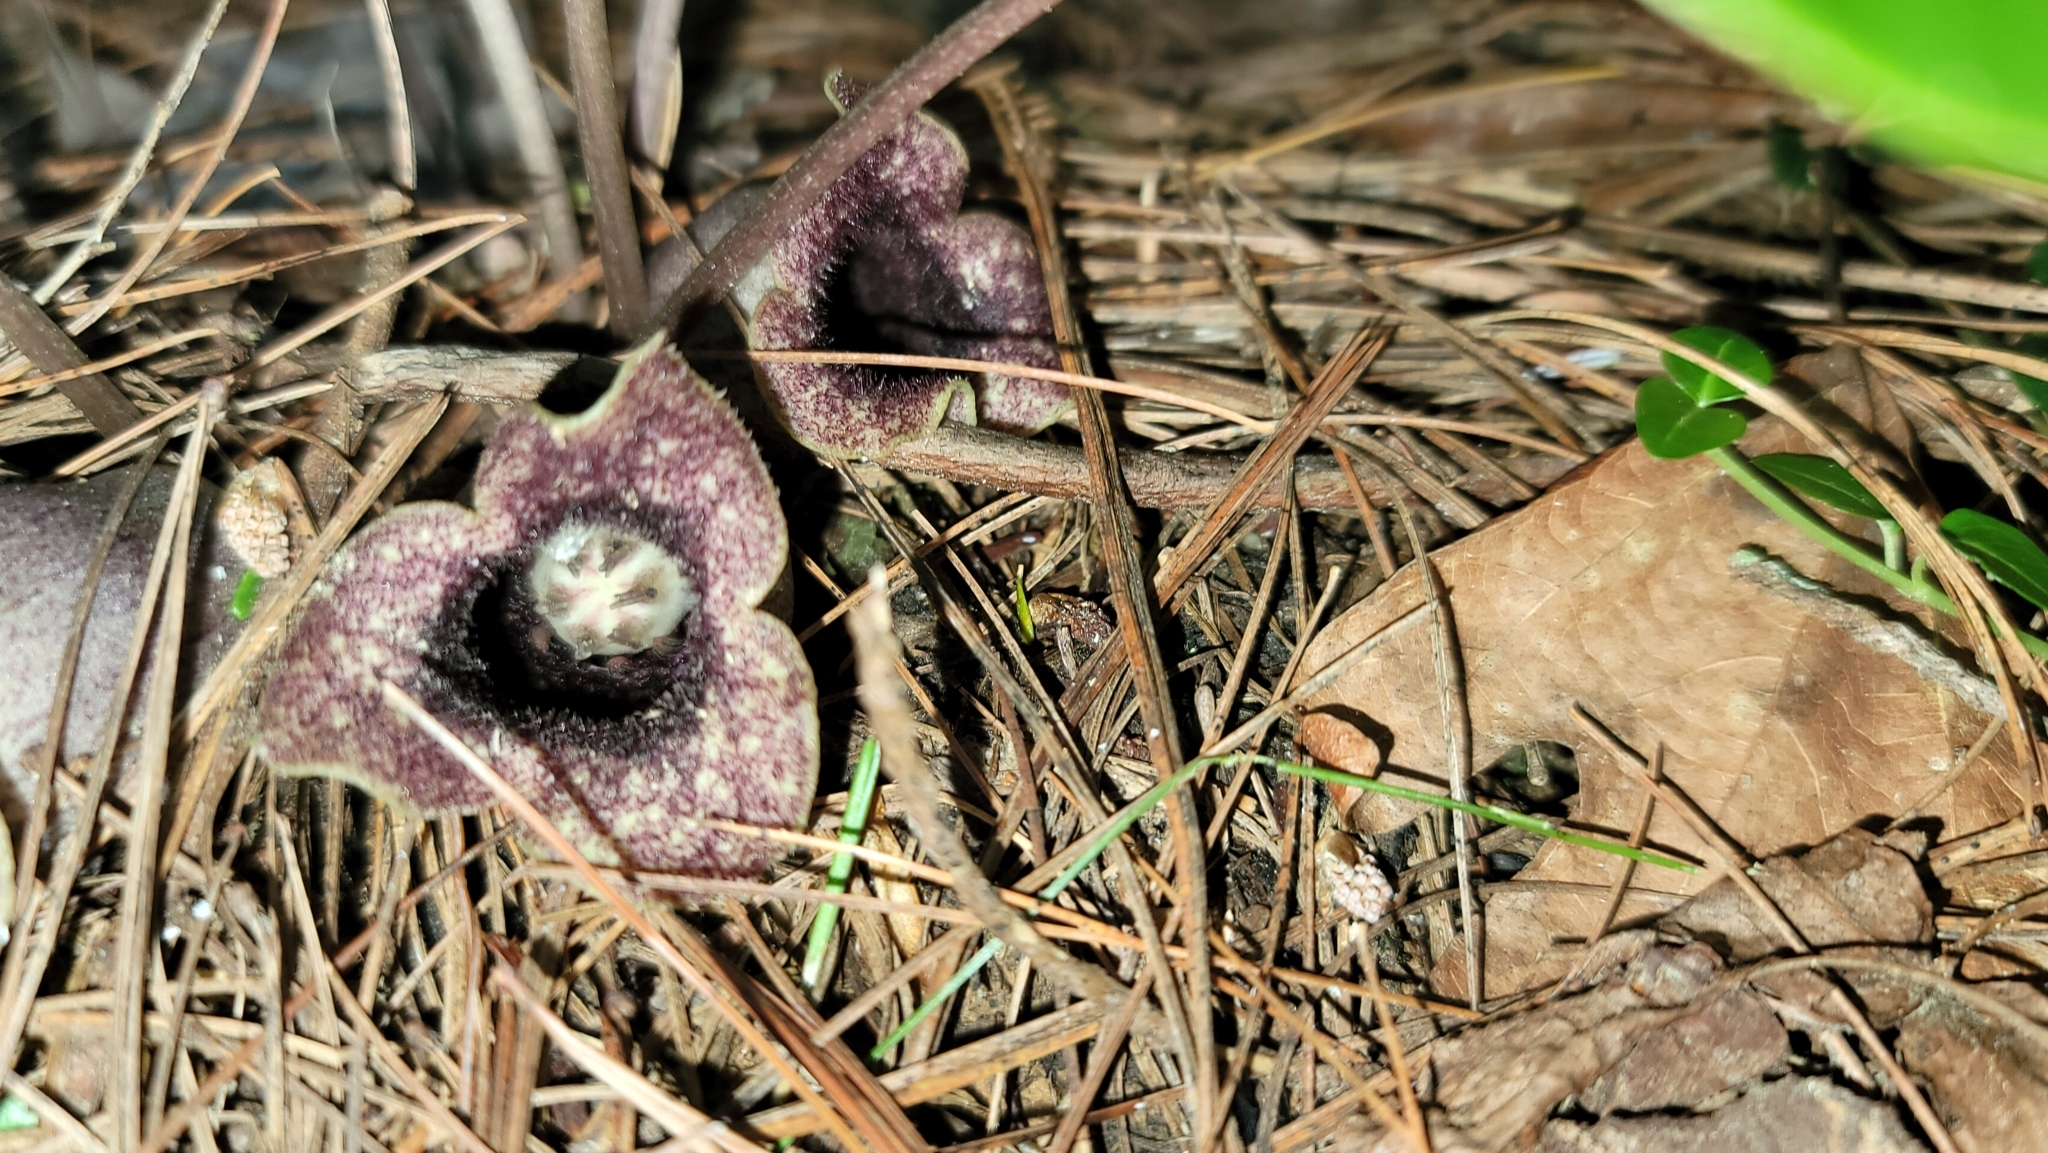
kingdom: Plantae
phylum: Tracheophyta
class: Magnoliopsida
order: Piperales
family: Aristolochiaceae
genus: Hexastylis
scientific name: Hexastylis shuttleworthii
